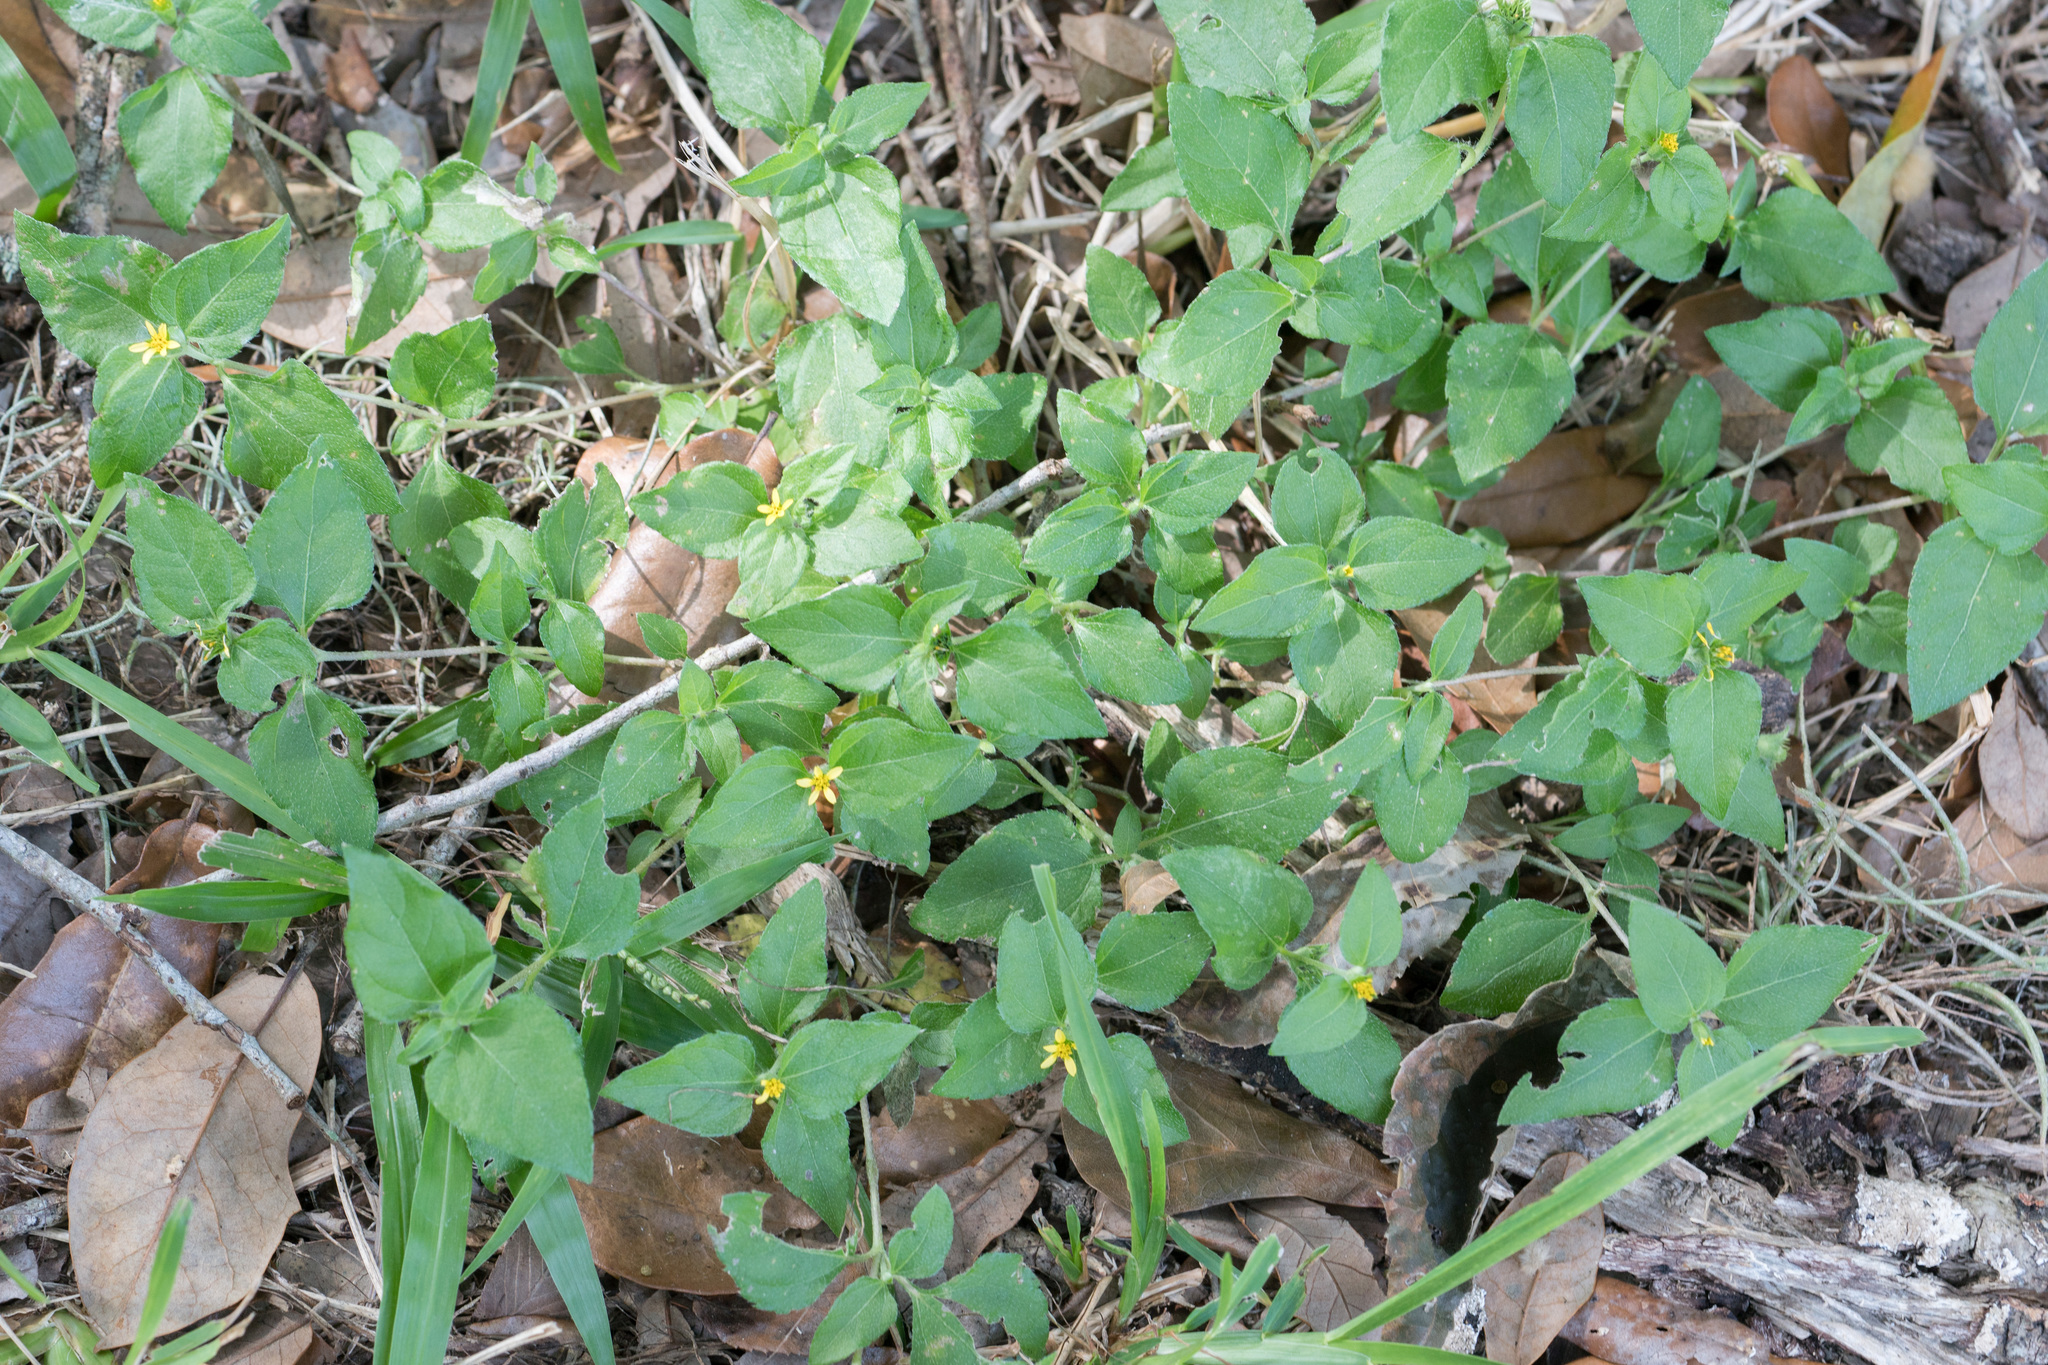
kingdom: Plantae
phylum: Tracheophyta
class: Magnoliopsida
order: Asterales
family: Asteraceae
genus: Calyptocarpus
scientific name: Calyptocarpus vialis
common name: Straggler daisy
